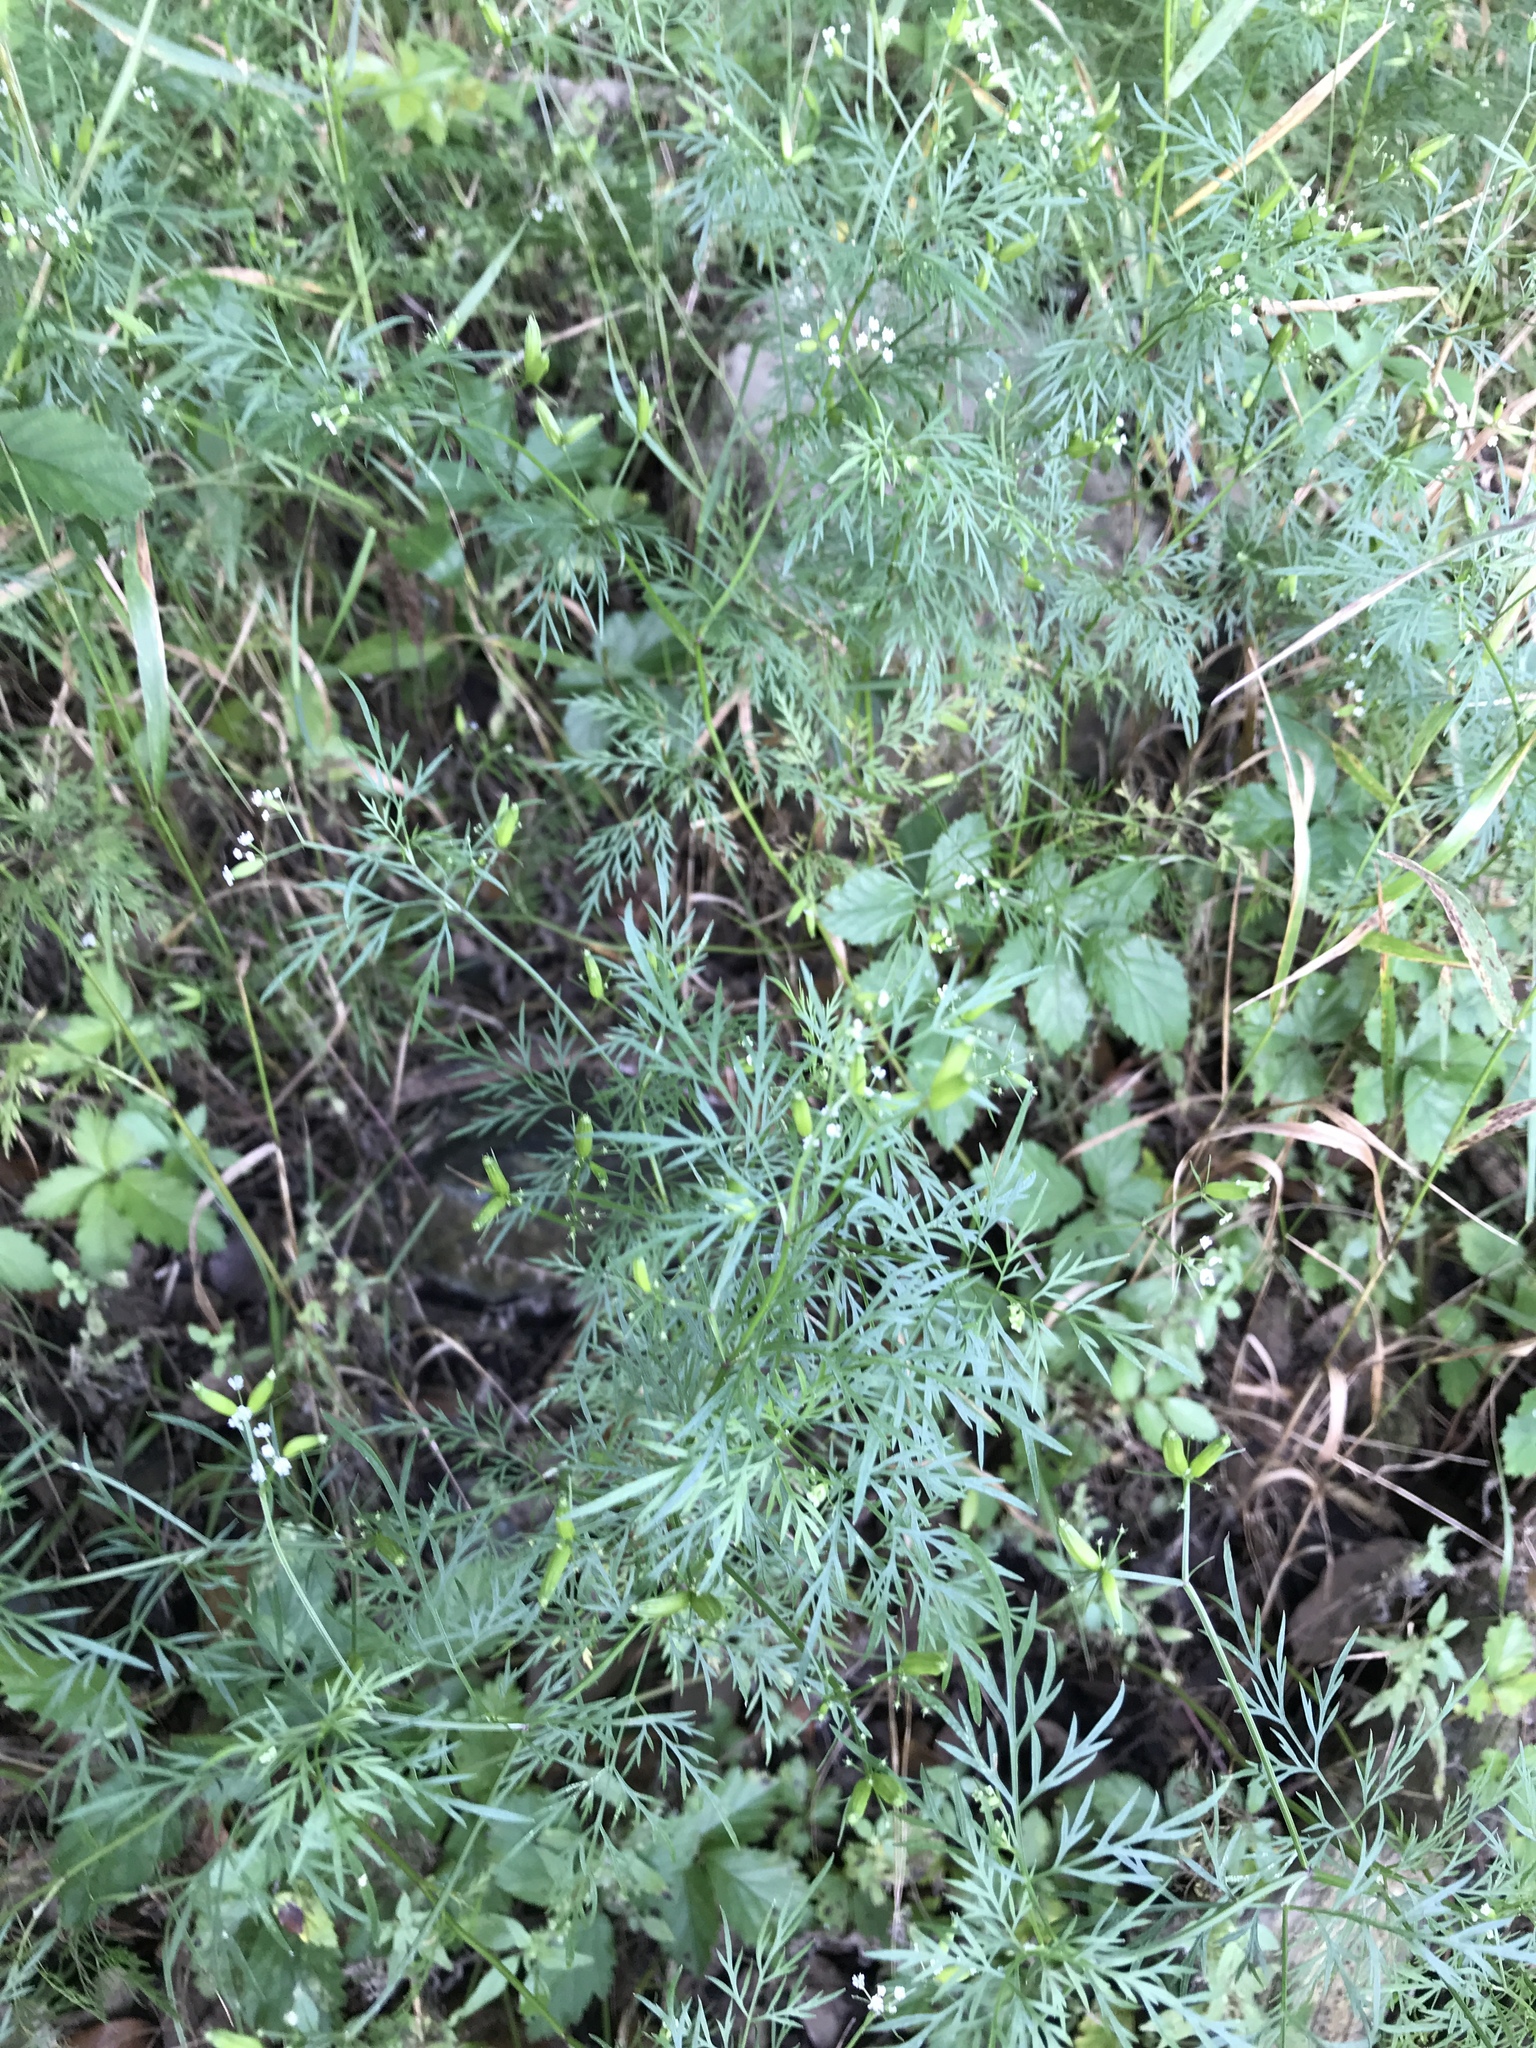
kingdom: Plantae
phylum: Tracheophyta
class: Magnoliopsida
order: Apiales
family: Apiaceae
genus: Trepocarpus
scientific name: Trepocarpus aethusae
